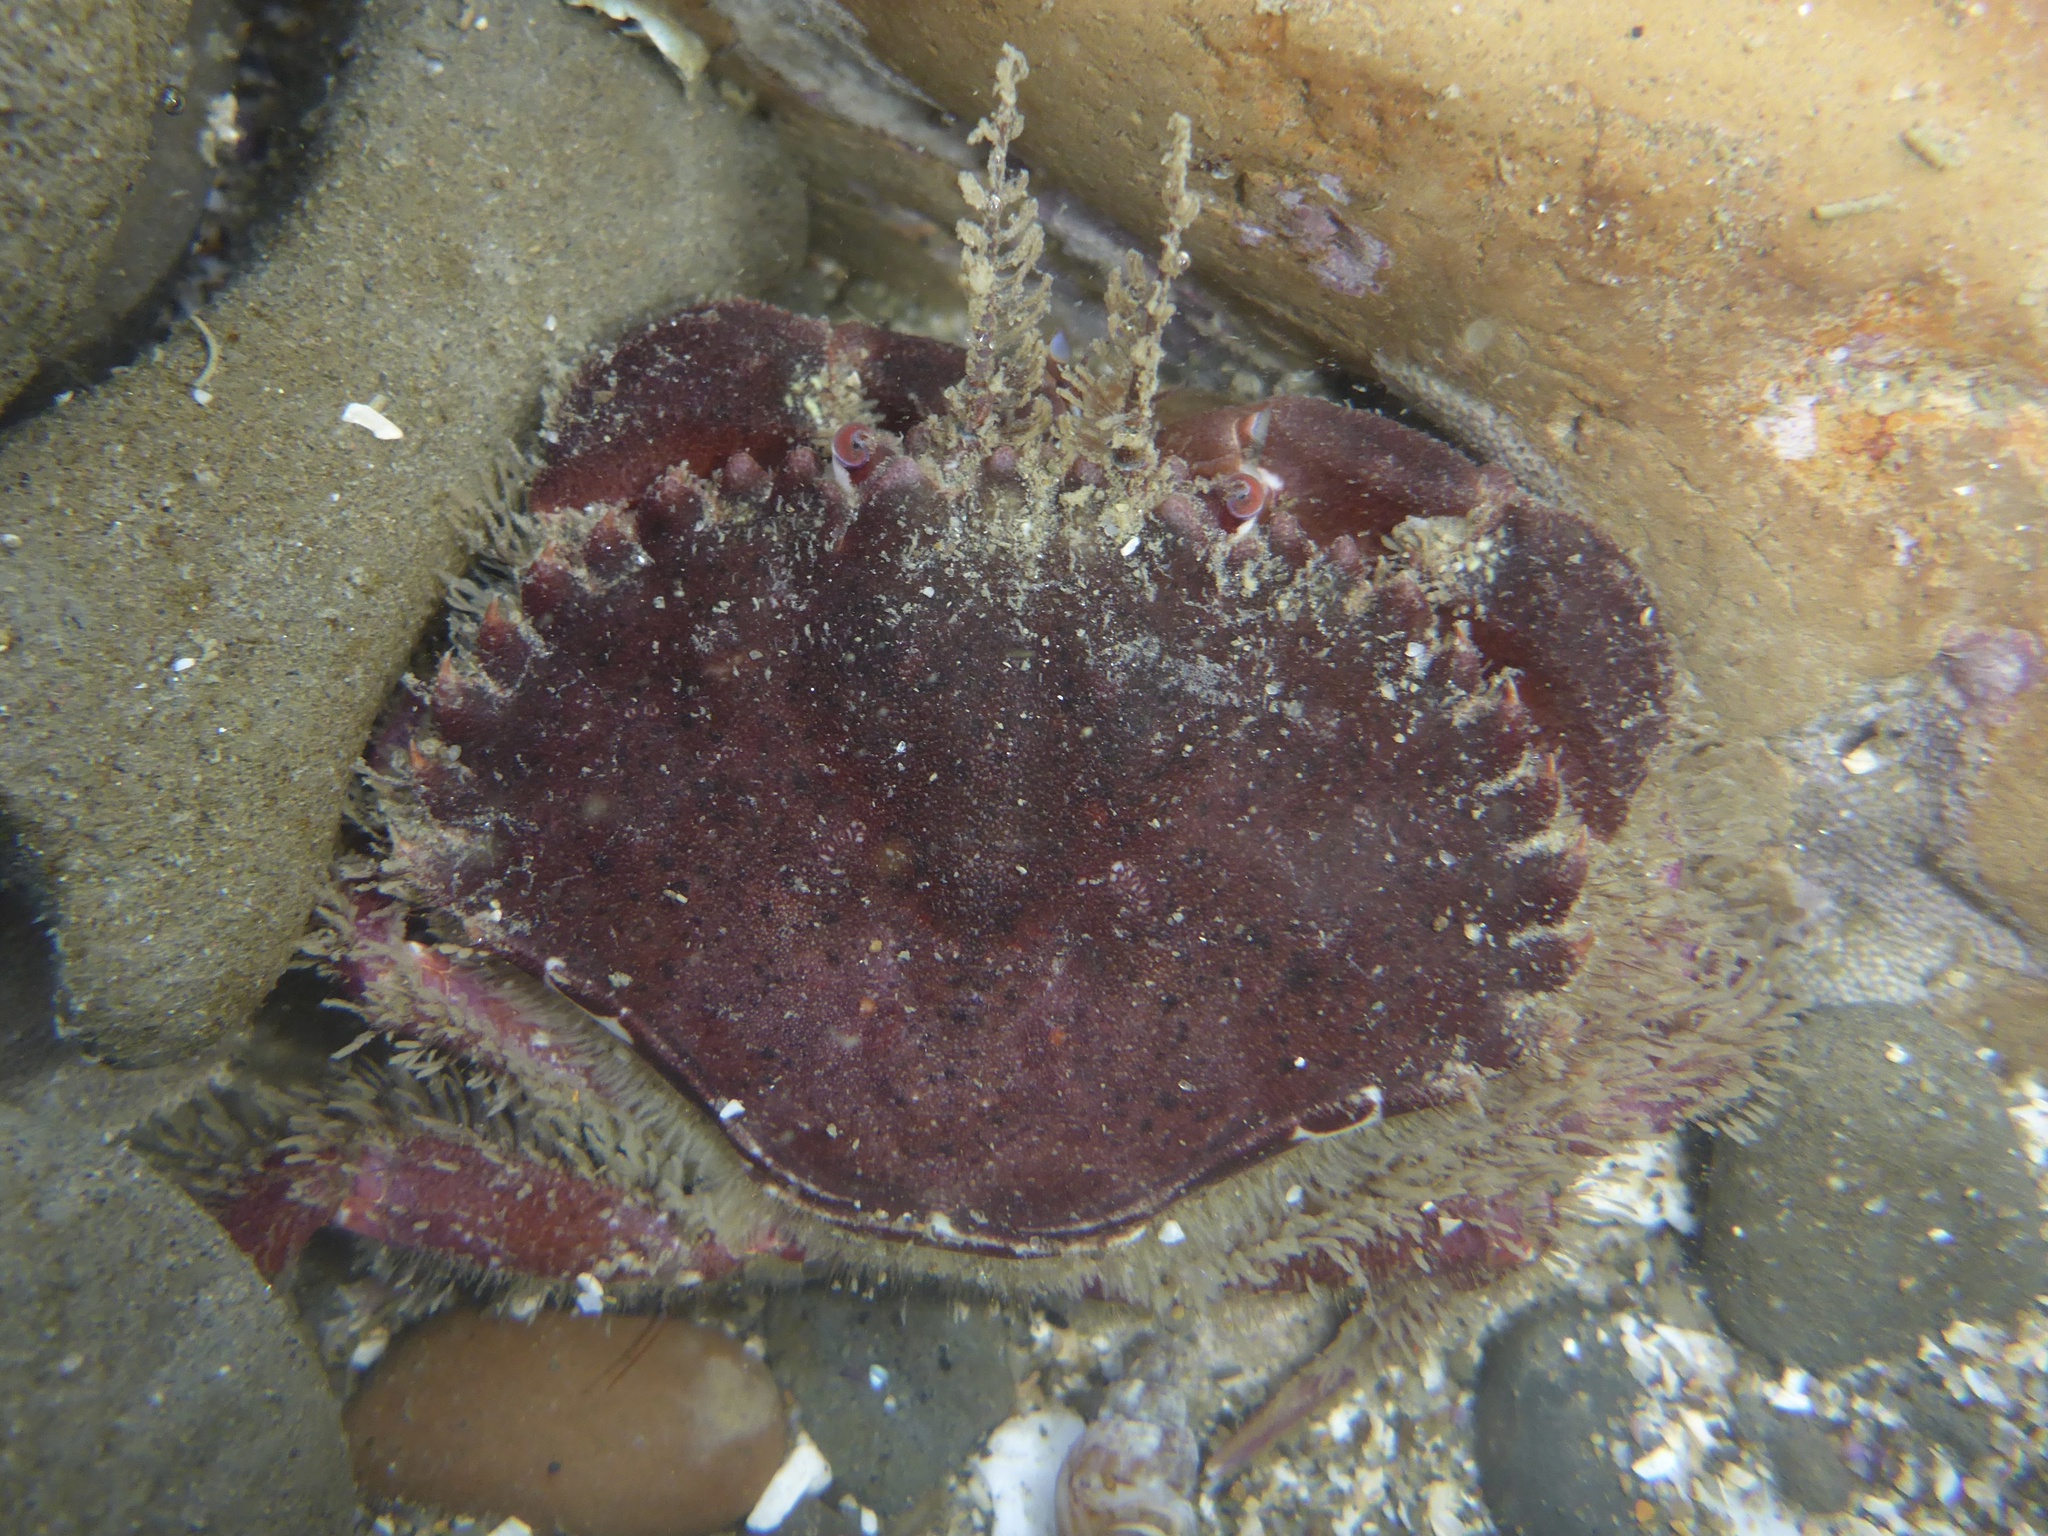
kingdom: Animalia
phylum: Arthropoda
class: Malacostraca
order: Decapoda
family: Cancridae
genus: Romaleon
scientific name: Romaleon antennarium
